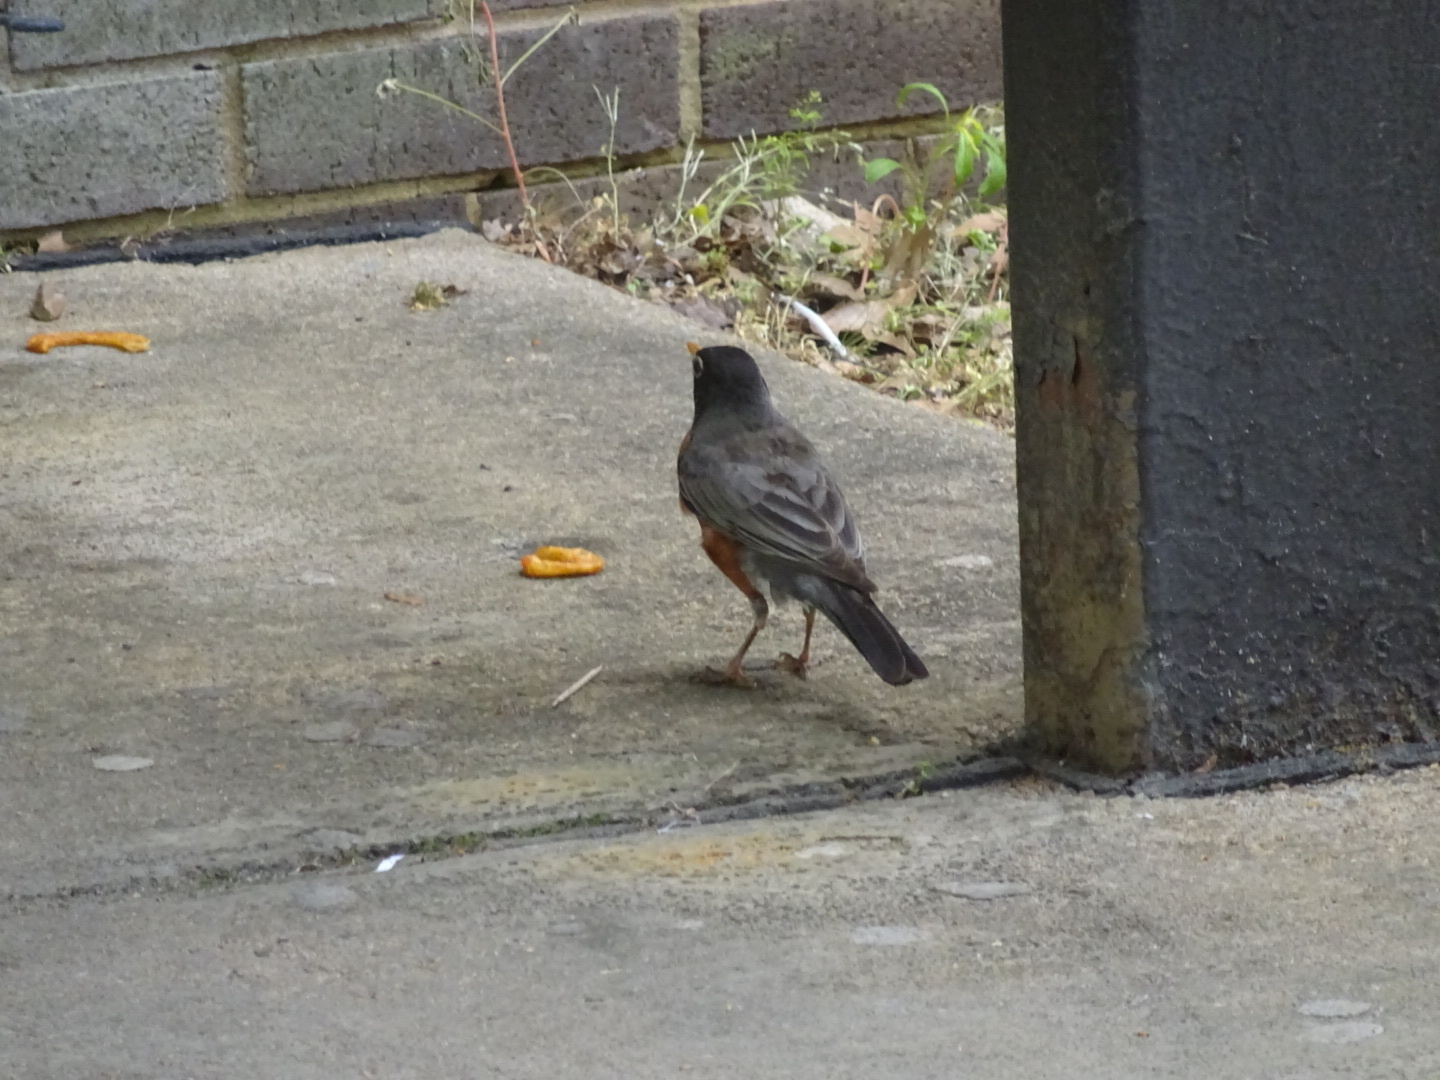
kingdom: Animalia
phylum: Chordata
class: Aves
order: Passeriformes
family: Turdidae
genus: Turdus
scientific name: Turdus migratorius
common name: American robin
